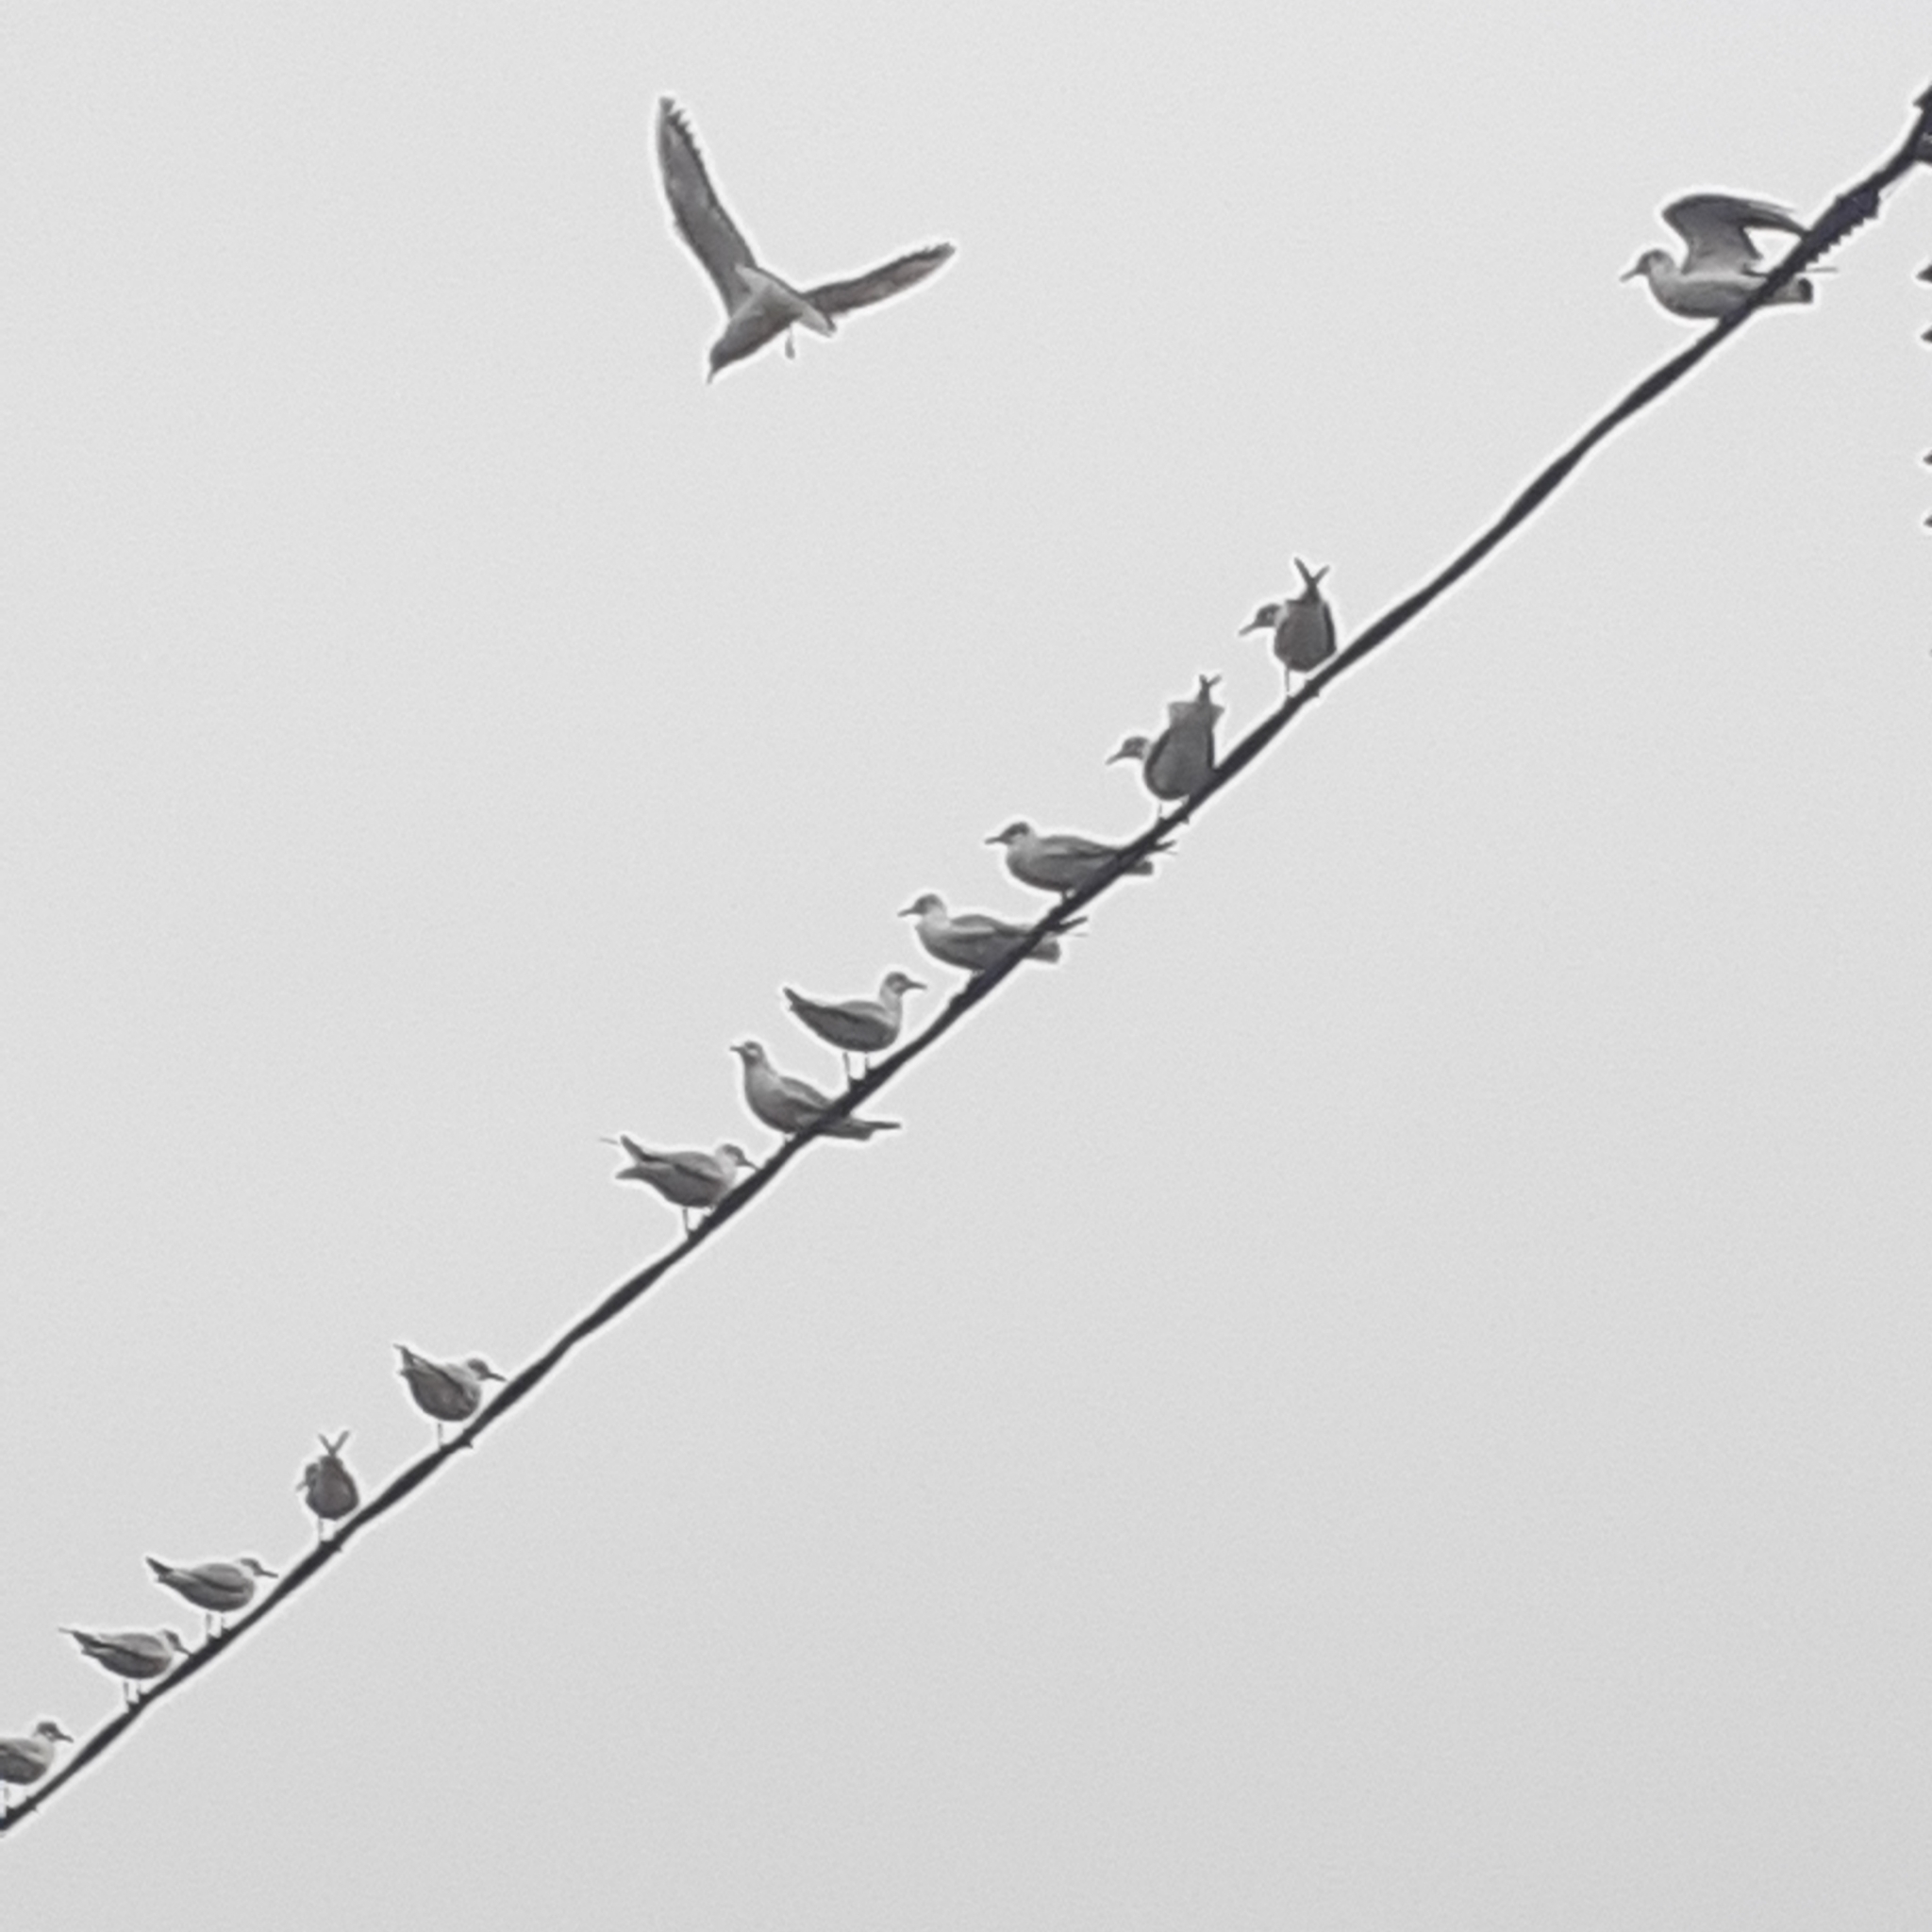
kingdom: Animalia
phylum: Chordata
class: Aves
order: Charadriiformes
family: Laridae
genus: Chroicocephalus
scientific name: Chroicocephalus ridibundus
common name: Black-headed gull
